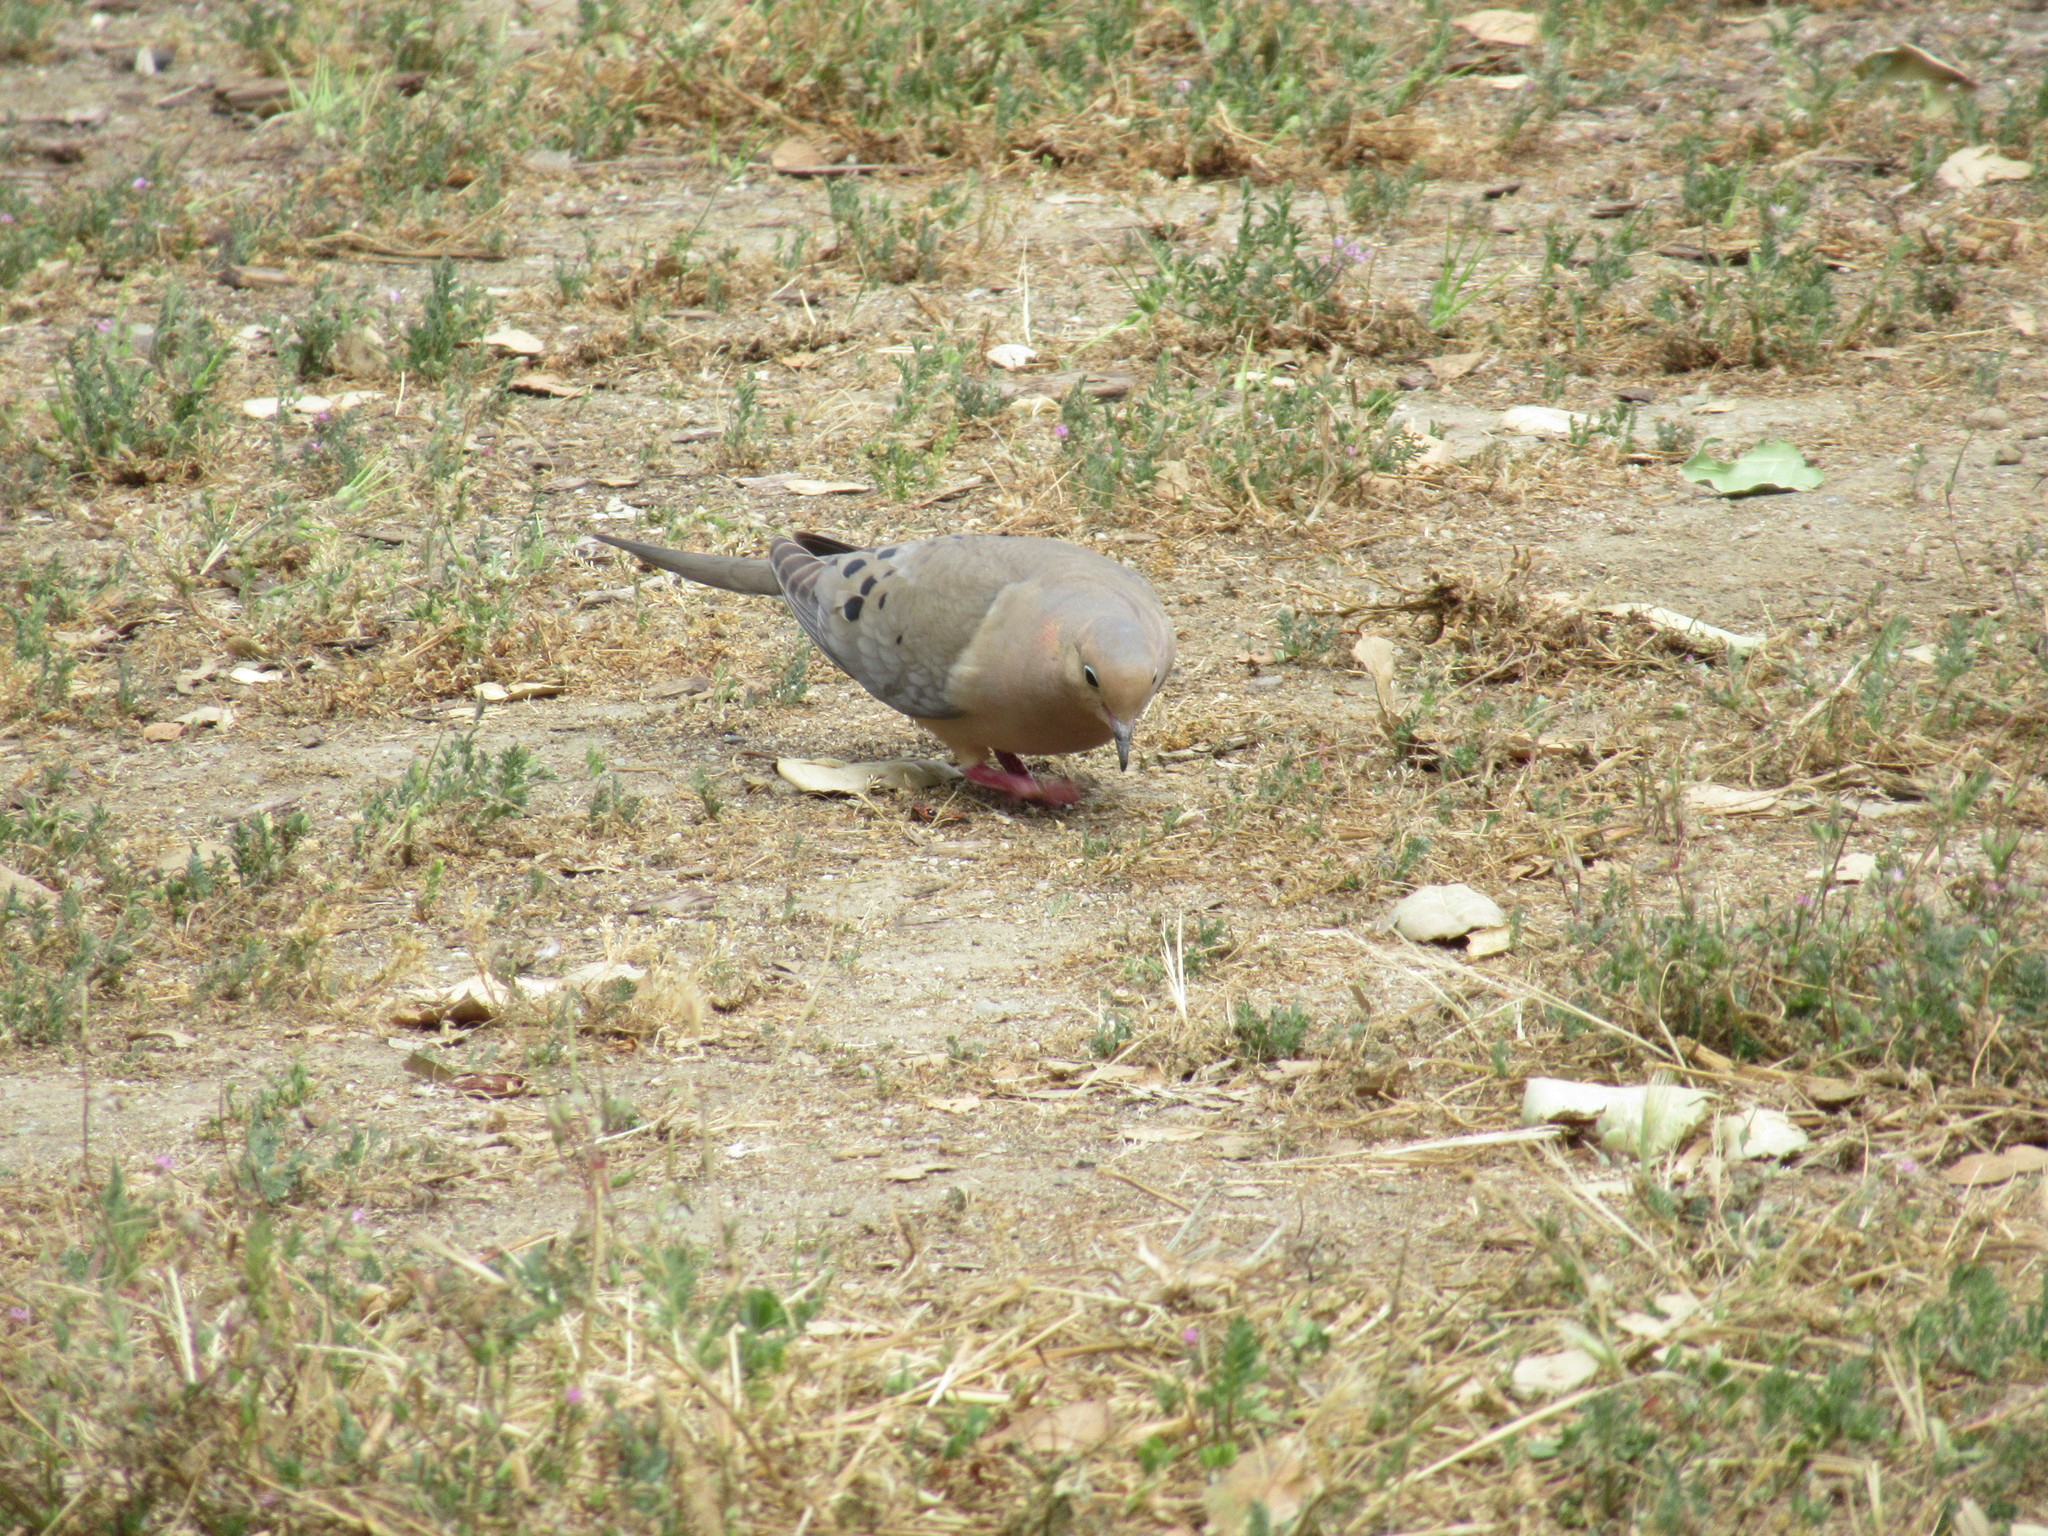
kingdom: Animalia
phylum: Chordata
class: Aves
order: Columbiformes
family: Columbidae
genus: Zenaida
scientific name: Zenaida macroura
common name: Mourning dove
